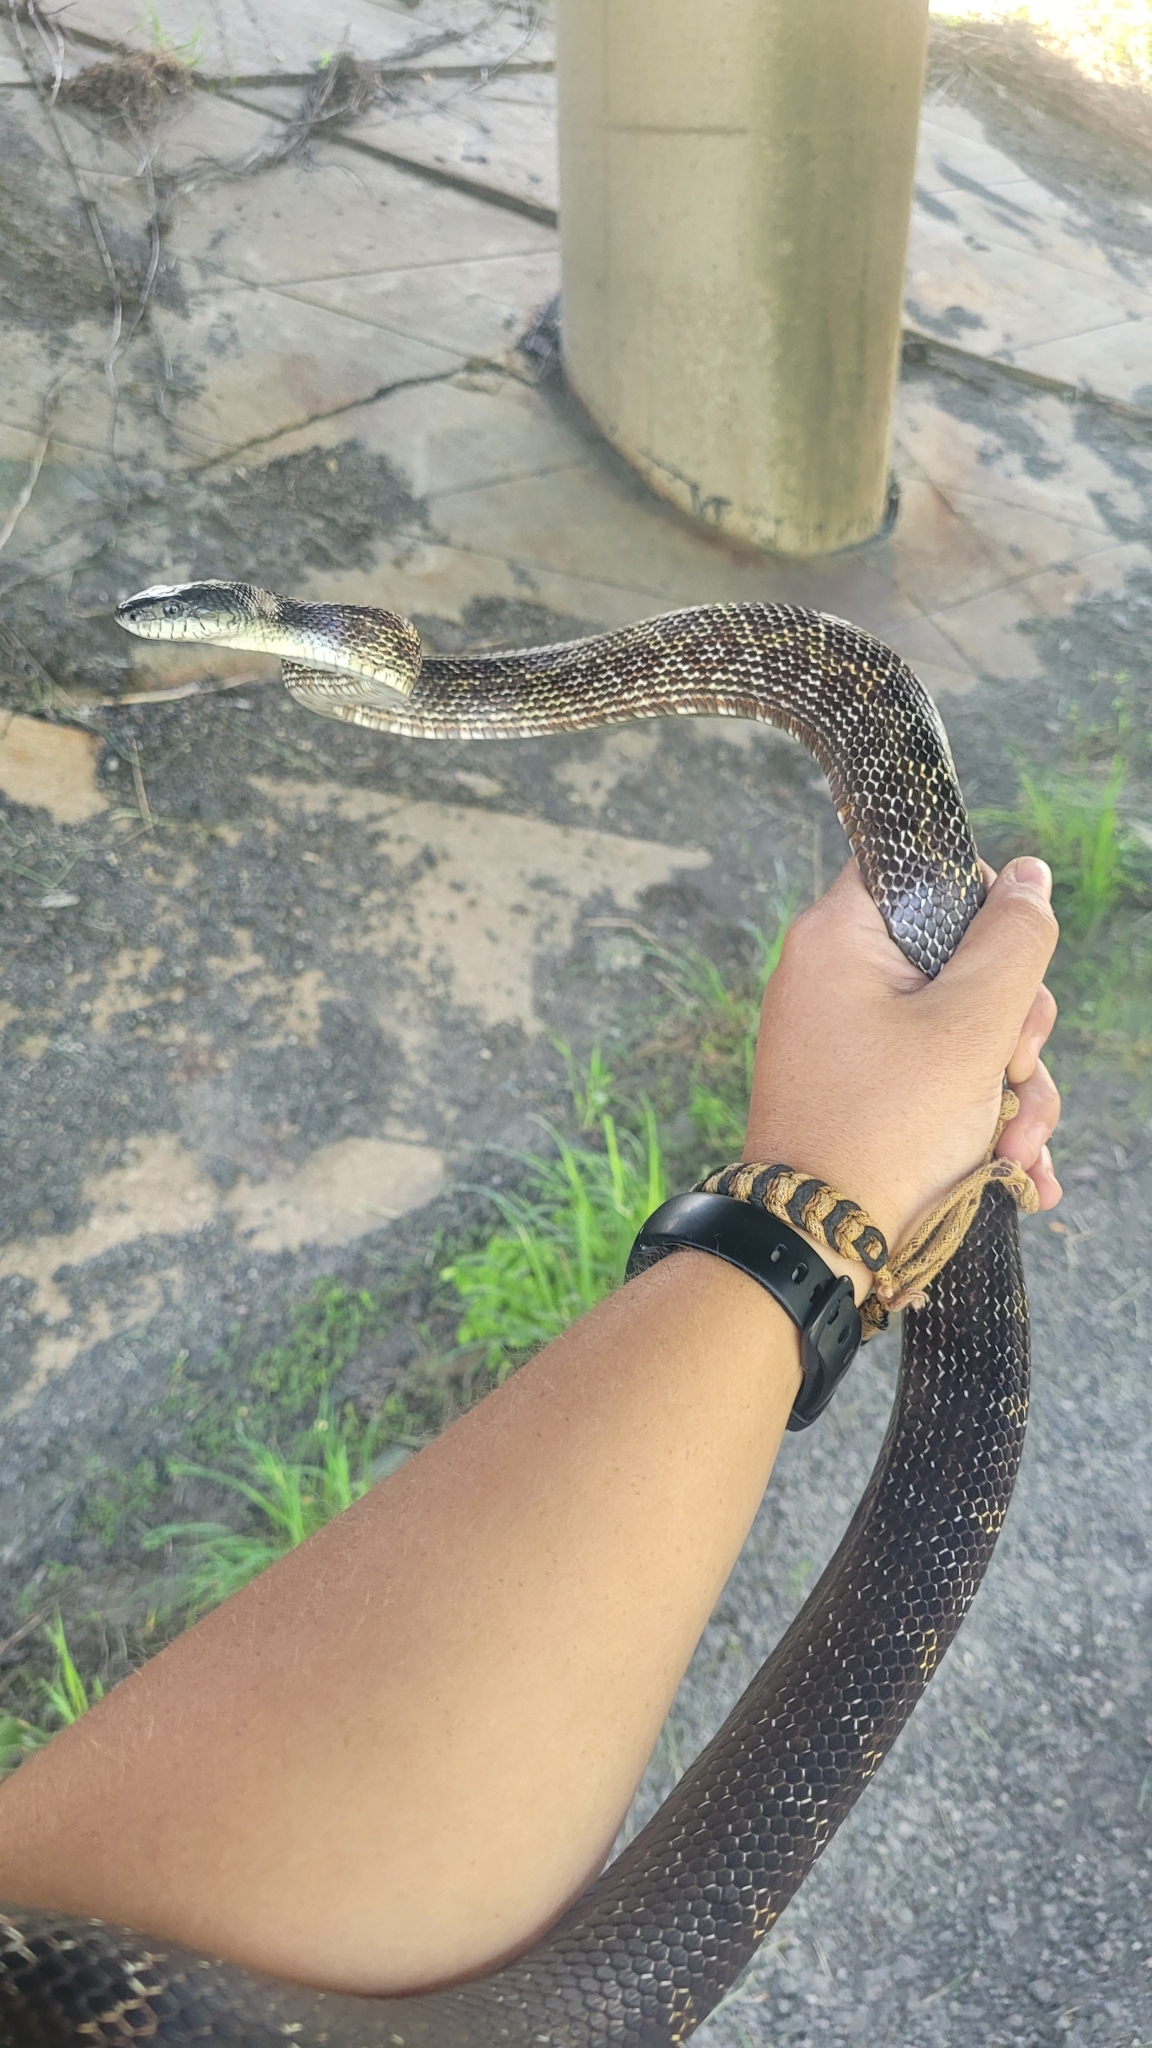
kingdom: Animalia
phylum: Chordata
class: Squamata
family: Colubridae
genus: Pantherophis
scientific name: Pantherophis spiloides
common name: Gray rat snake
